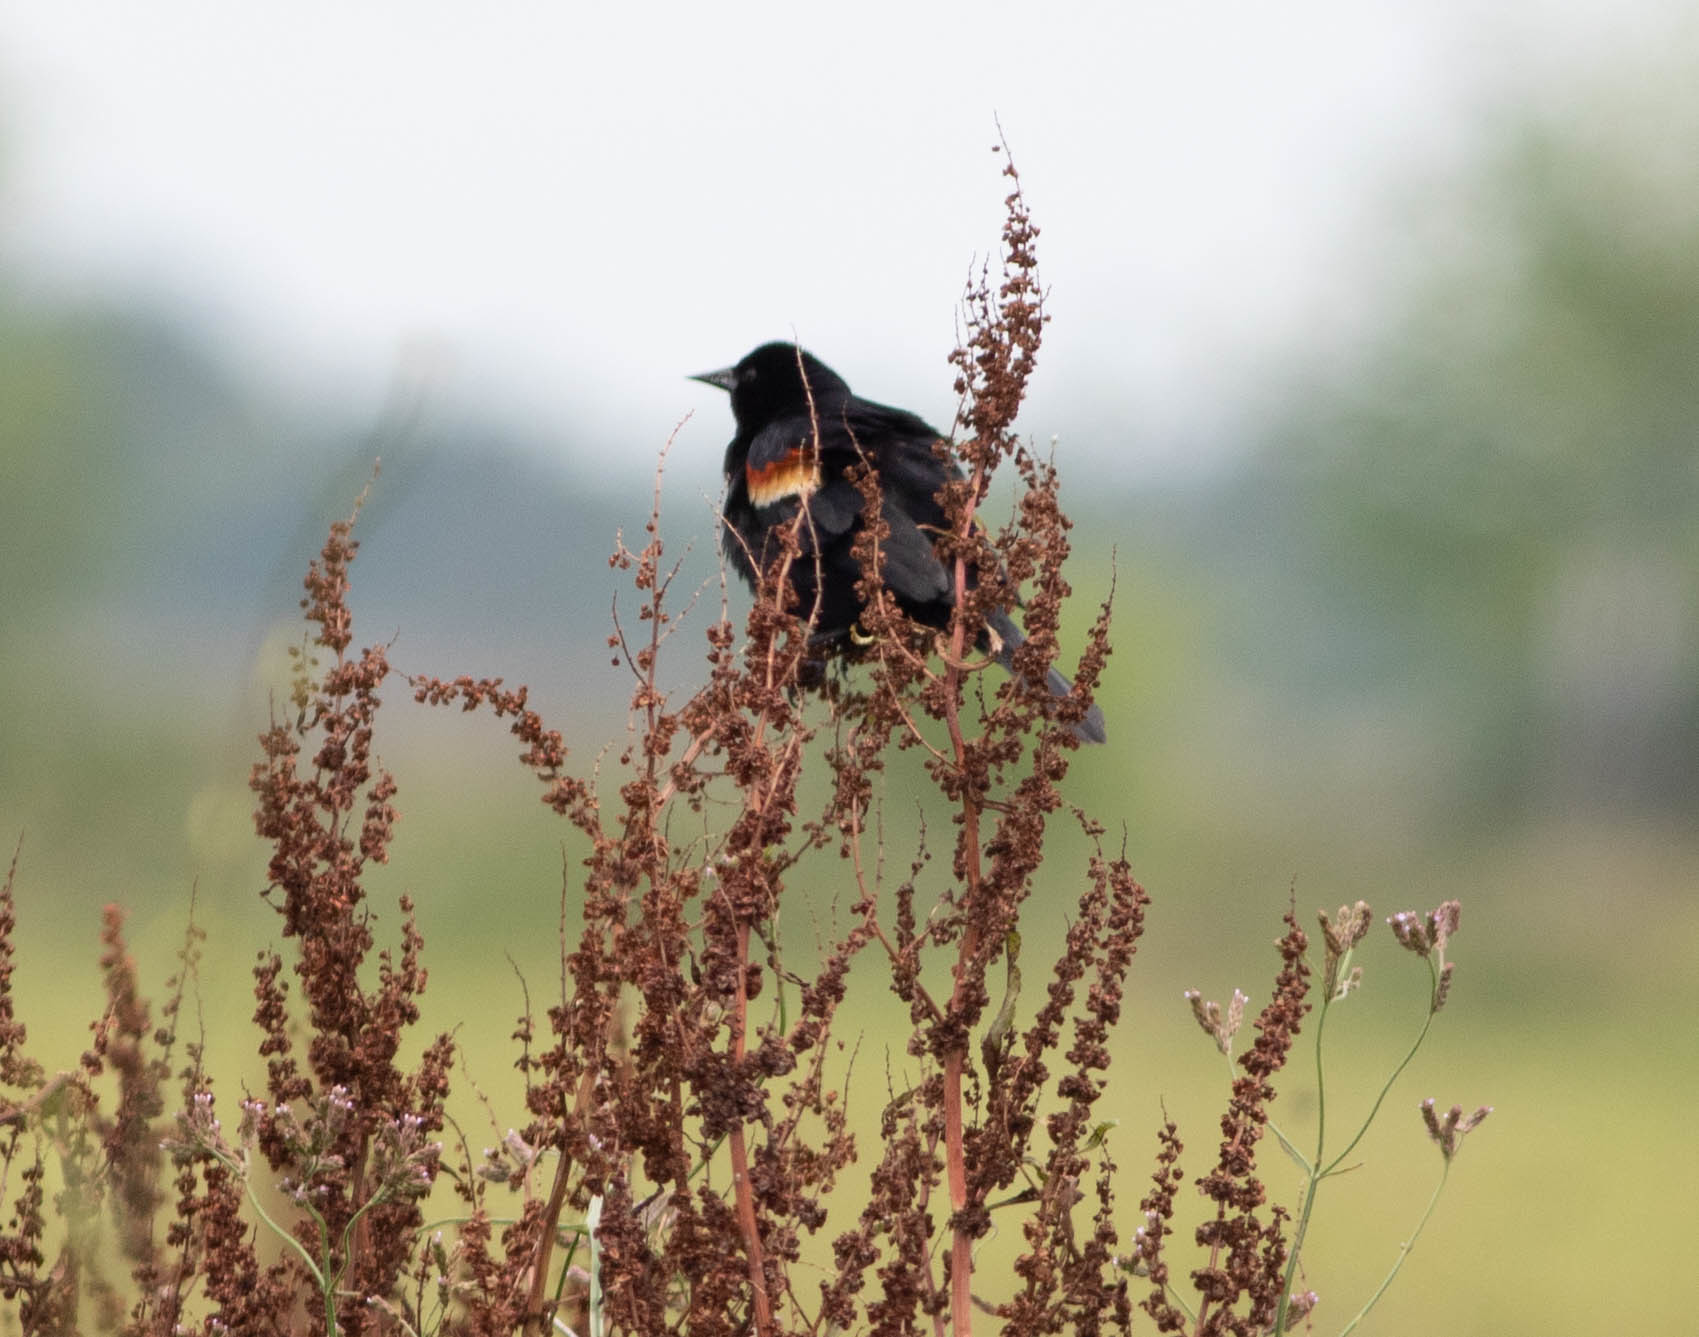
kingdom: Animalia
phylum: Chordata
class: Aves
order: Passeriformes
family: Icteridae
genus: Agelaius
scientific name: Agelaius phoeniceus
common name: Red-winged blackbird
